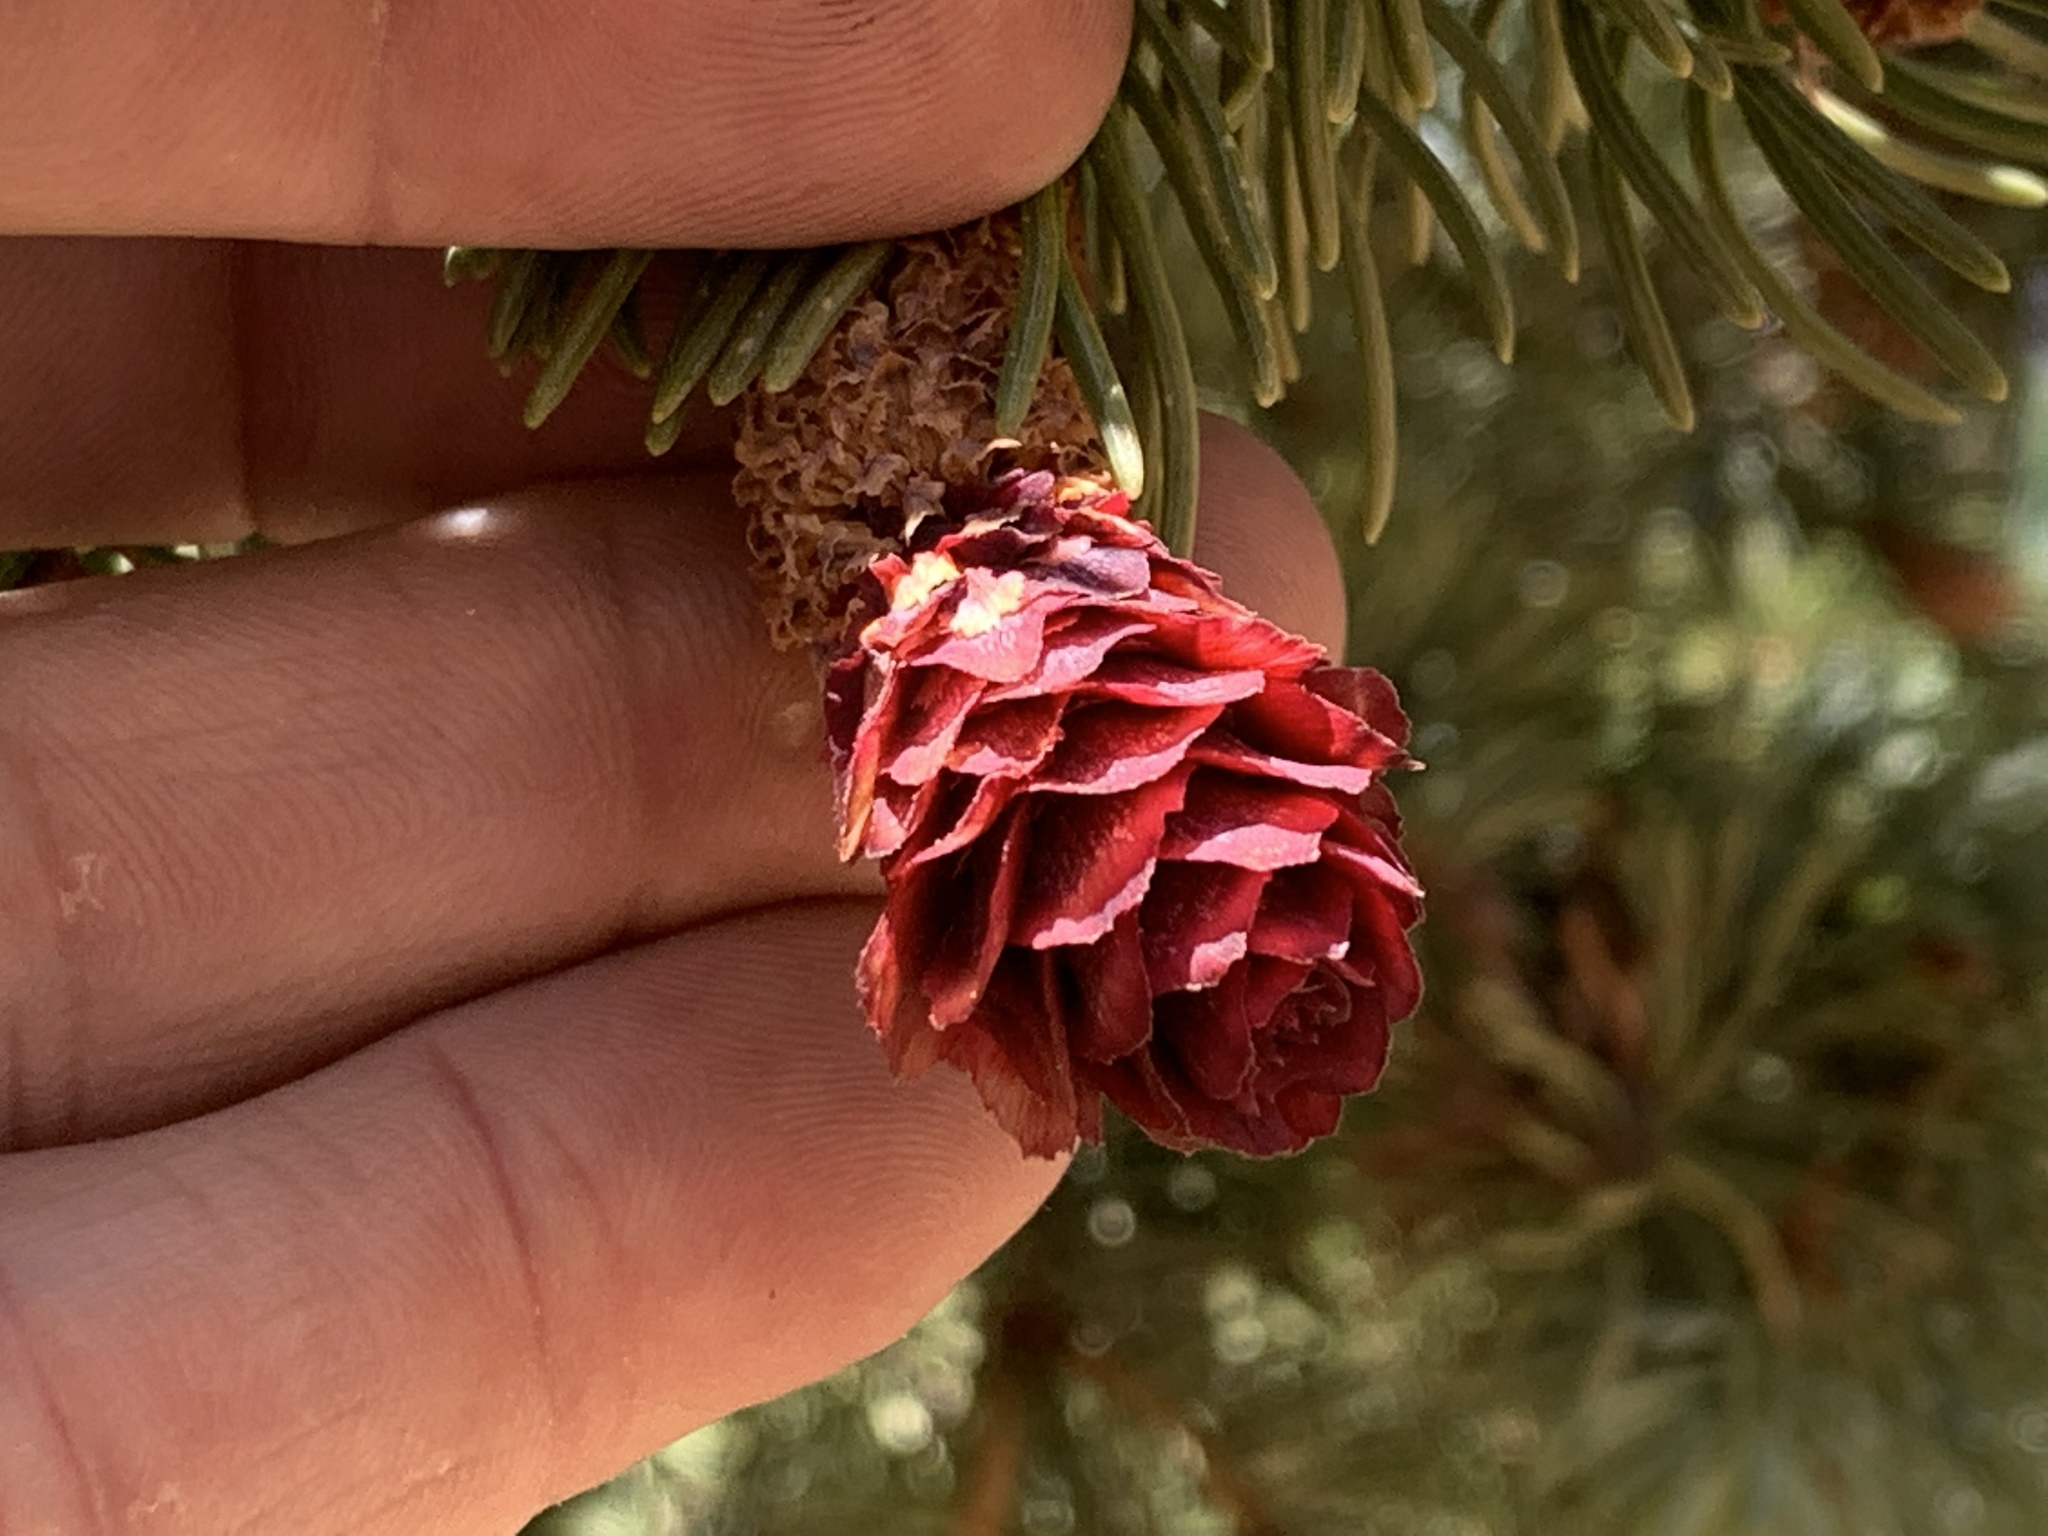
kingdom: Plantae
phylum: Tracheophyta
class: Pinopsida
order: Pinales
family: Pinaceae
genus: Picea
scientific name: Picea engelmannii
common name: Engelmann spruce
